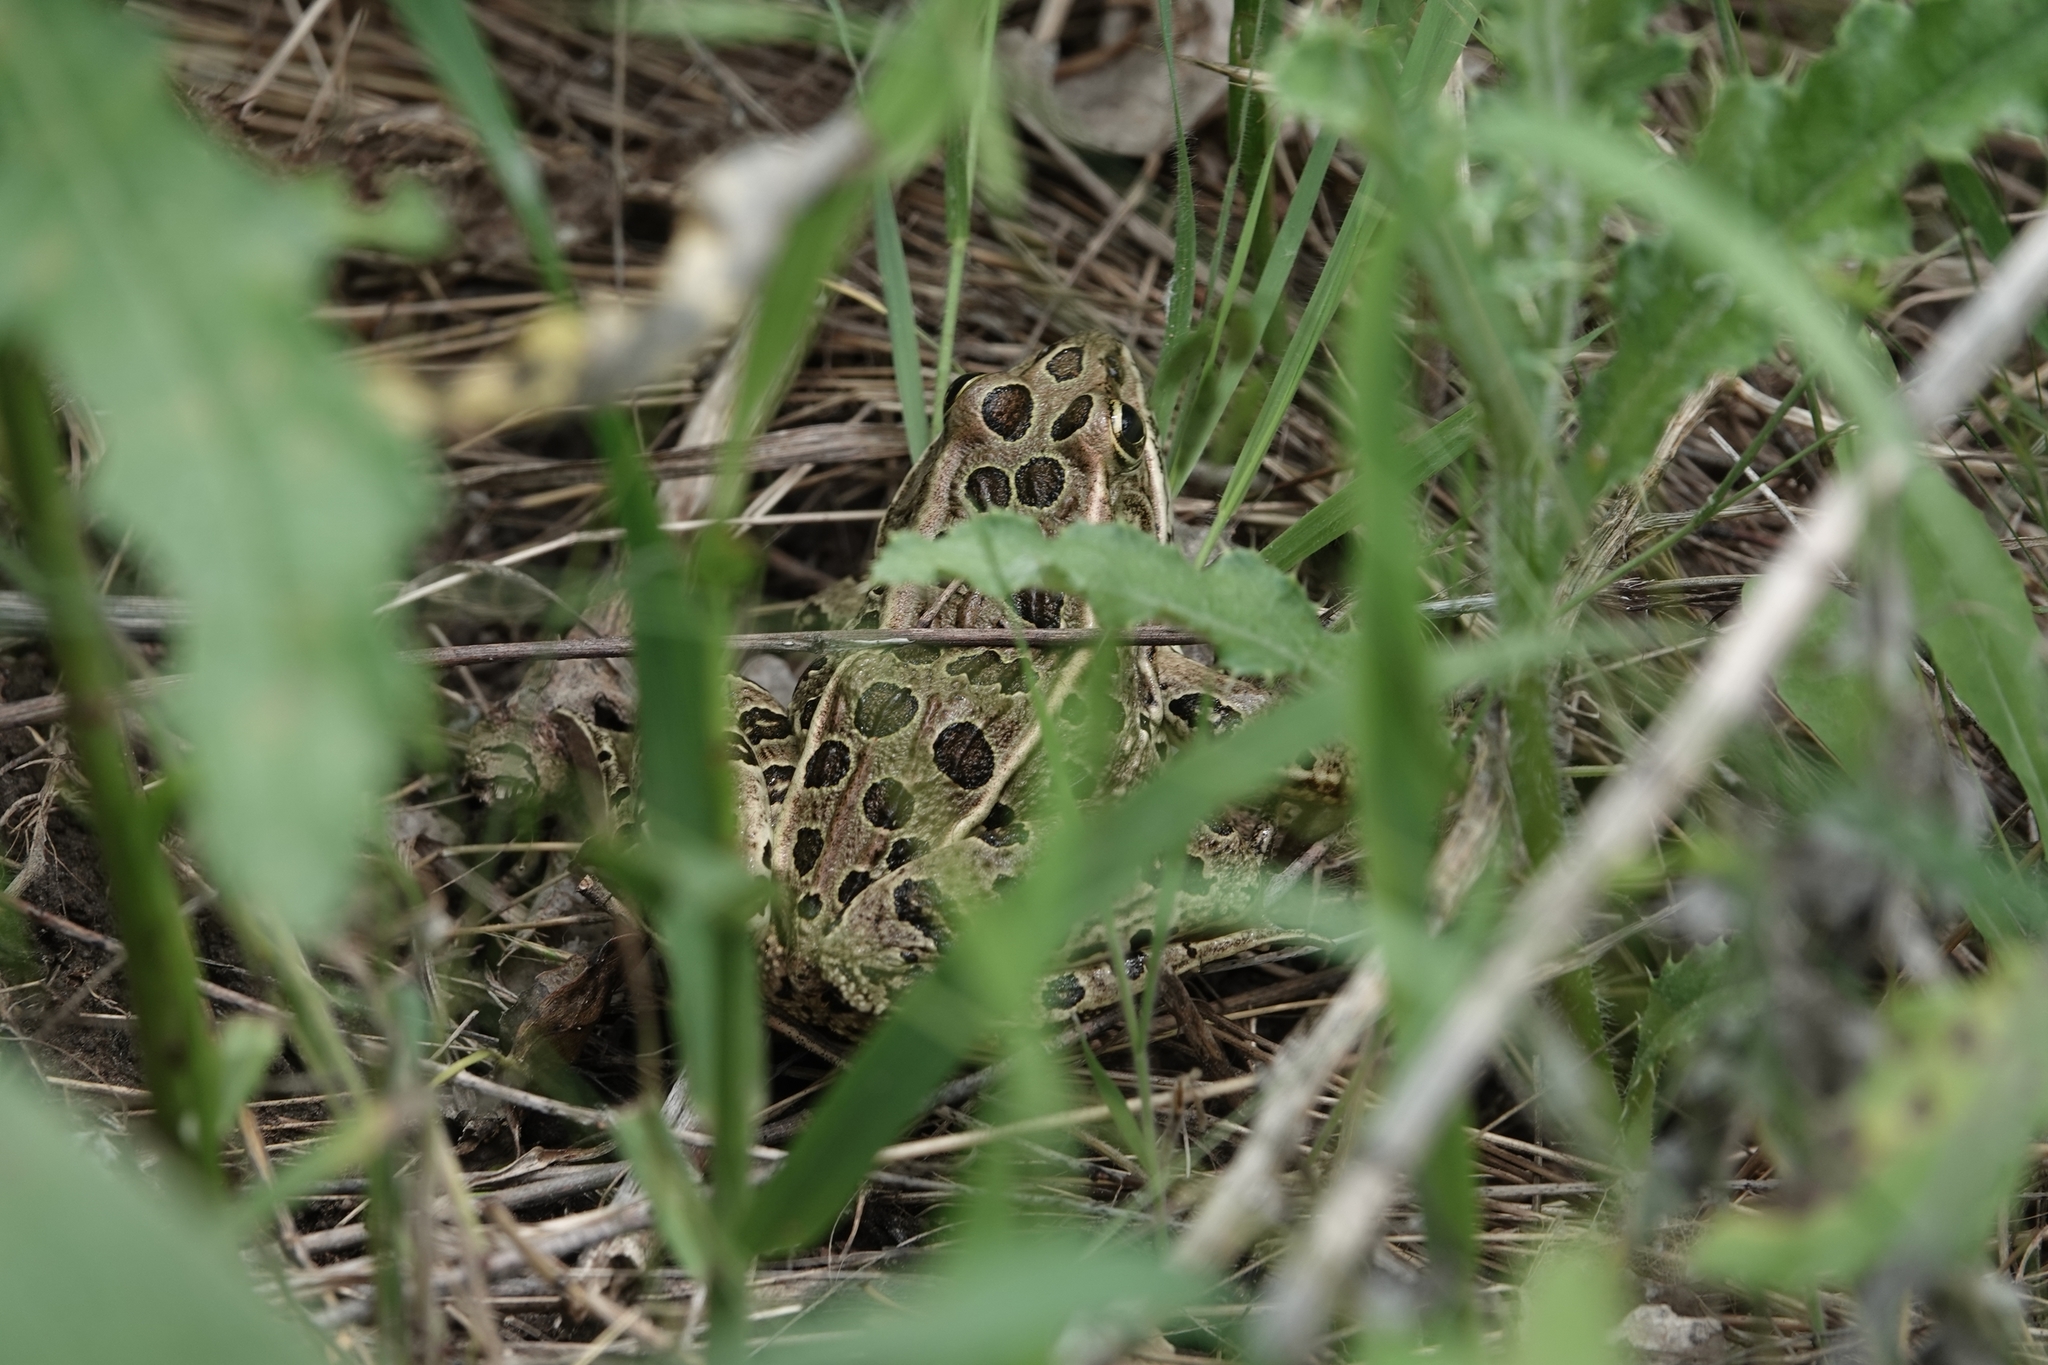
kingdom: Animalia
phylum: Chordata
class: Amphibia
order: Anura
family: Ranidae
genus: Lithobates
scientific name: Lithobates pipiens
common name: Northern leopard frog
